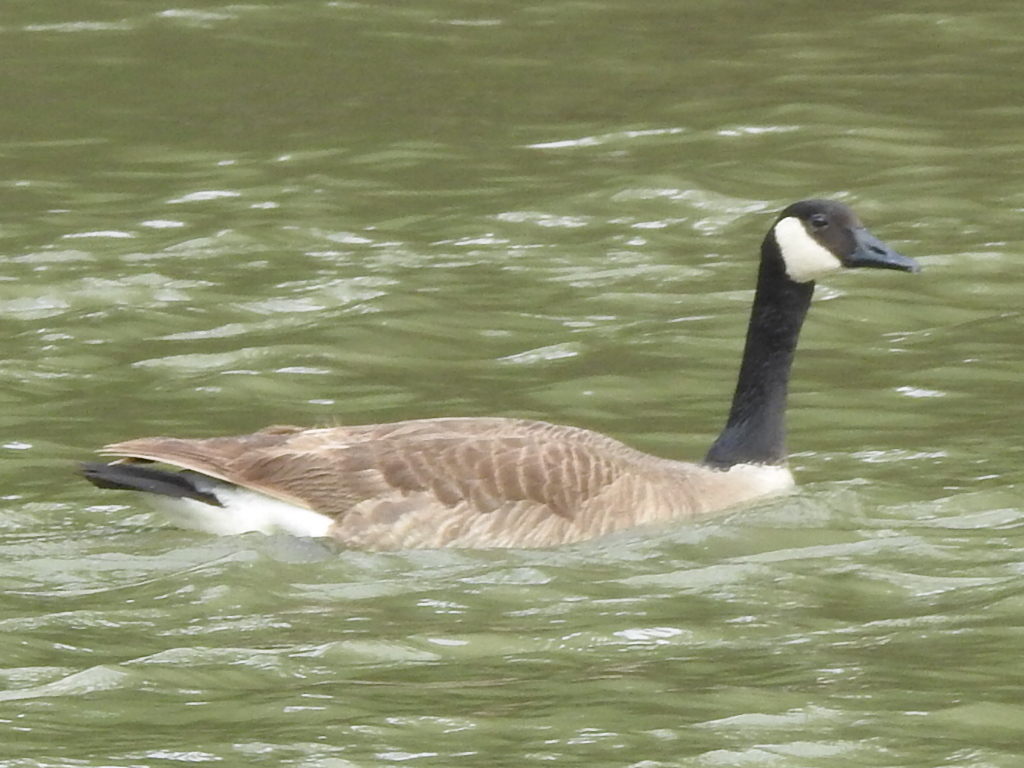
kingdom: Animalia
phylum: Chordata
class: Aves
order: Anseriformes
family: Anatidae
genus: Branta
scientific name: Branta canadensis
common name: Canada goose
